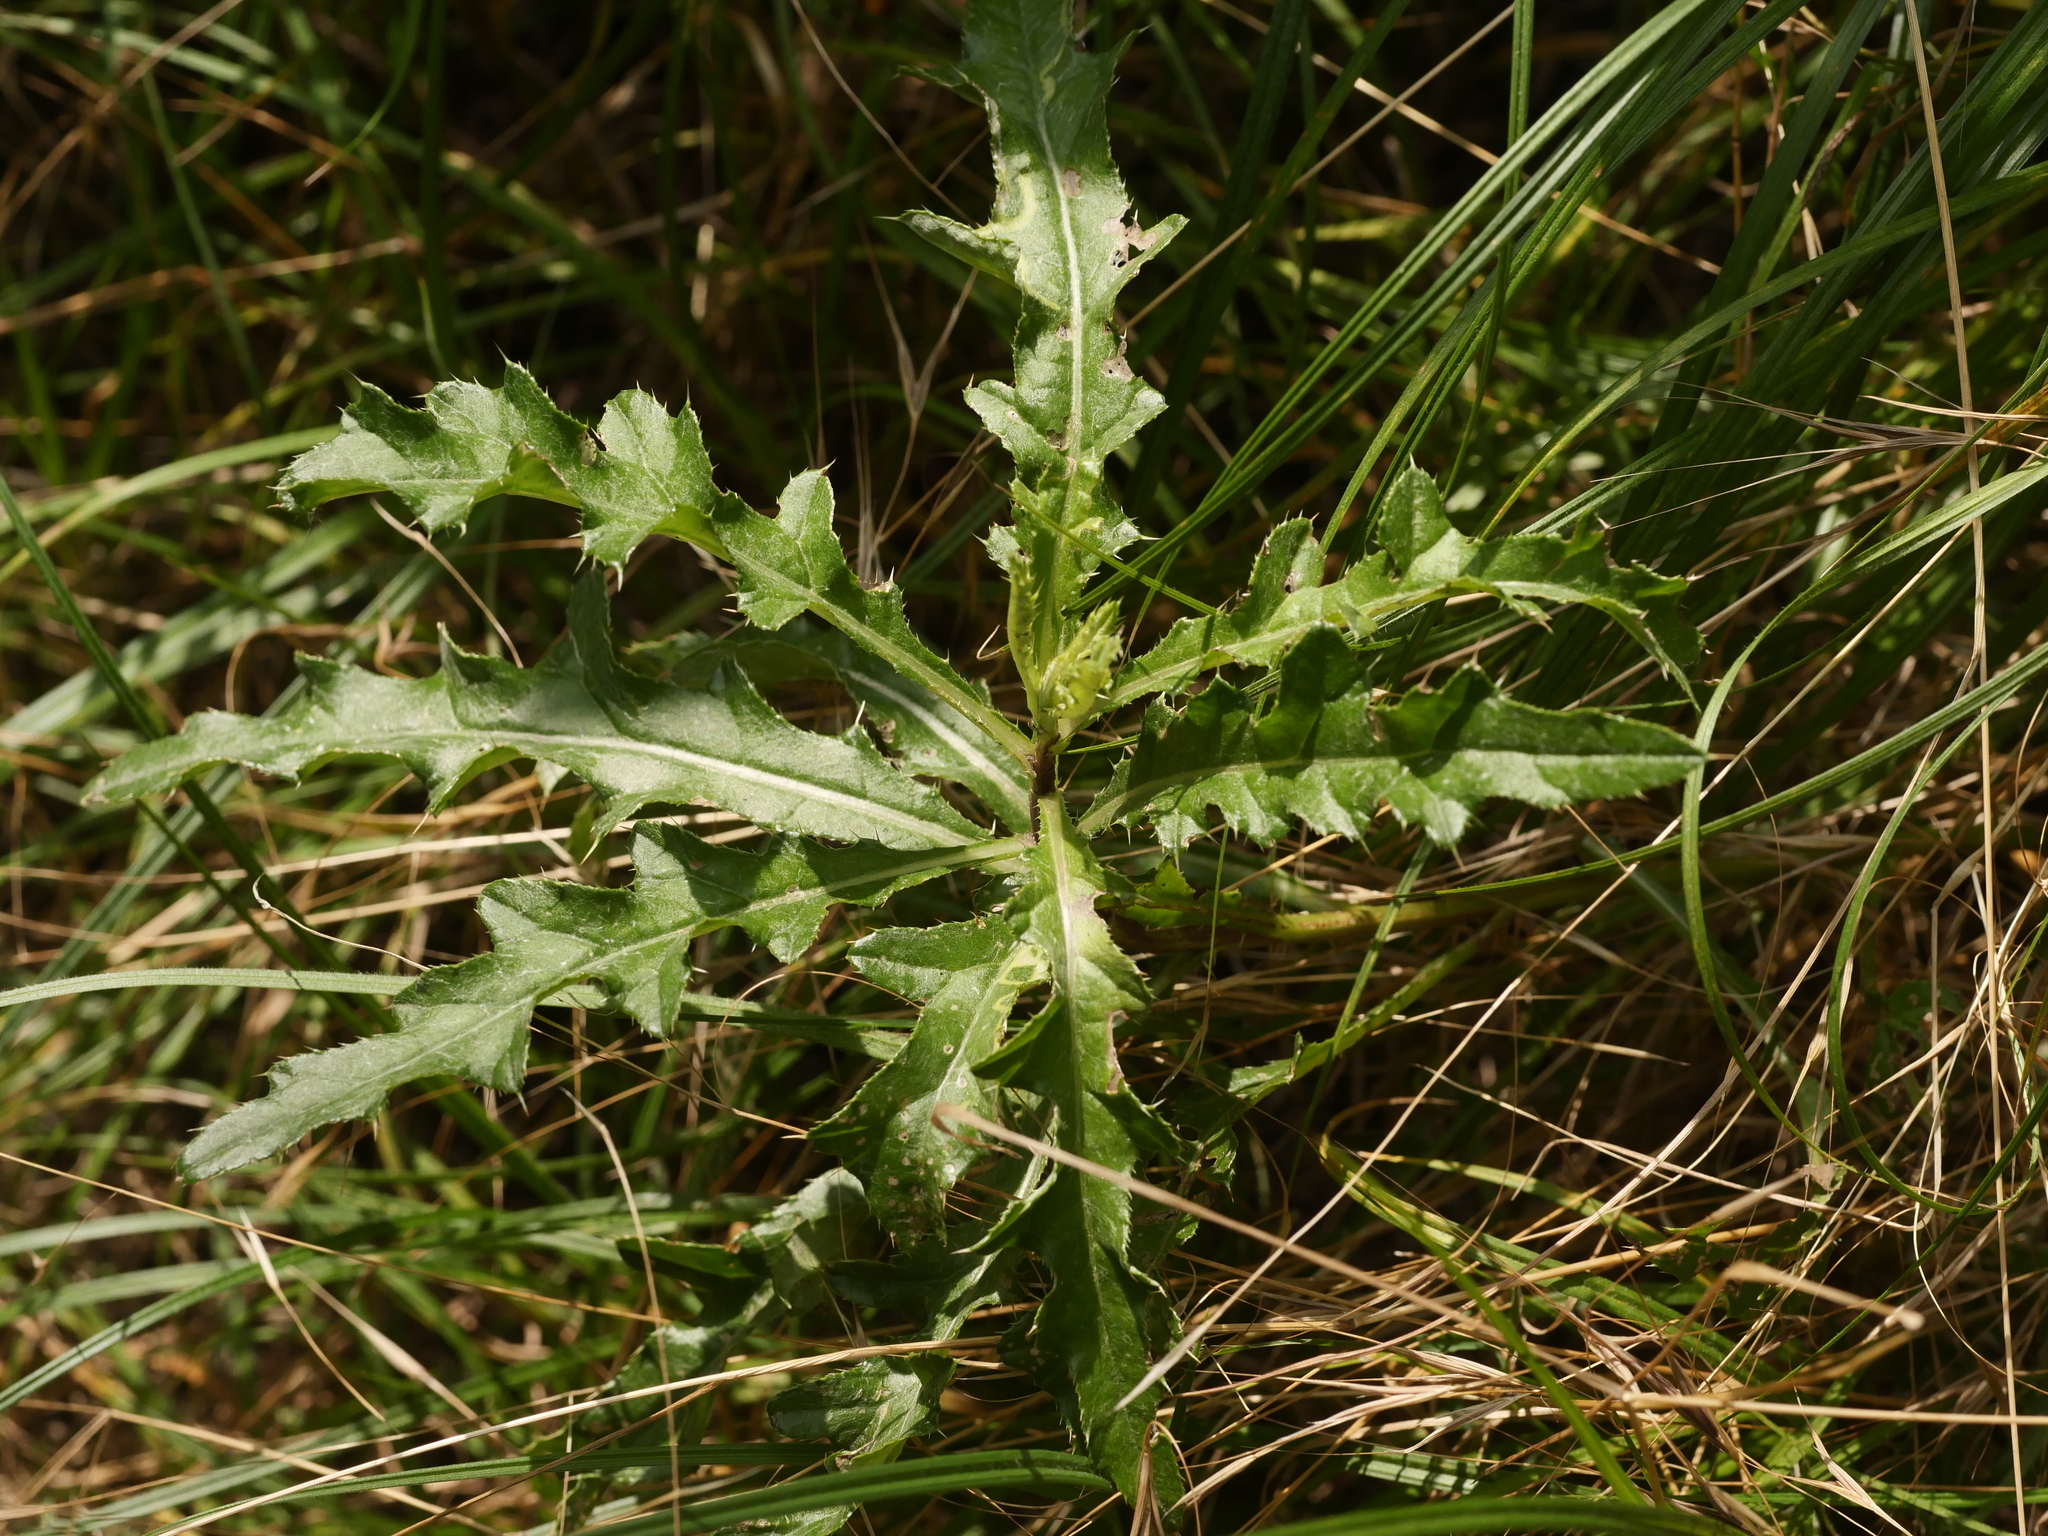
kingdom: Plantae
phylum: Tracheophyta
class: Magnoliopsida
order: Asterales
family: Asteraceae
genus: Cirsium
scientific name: Cirsium arvense
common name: Creeping thistle
